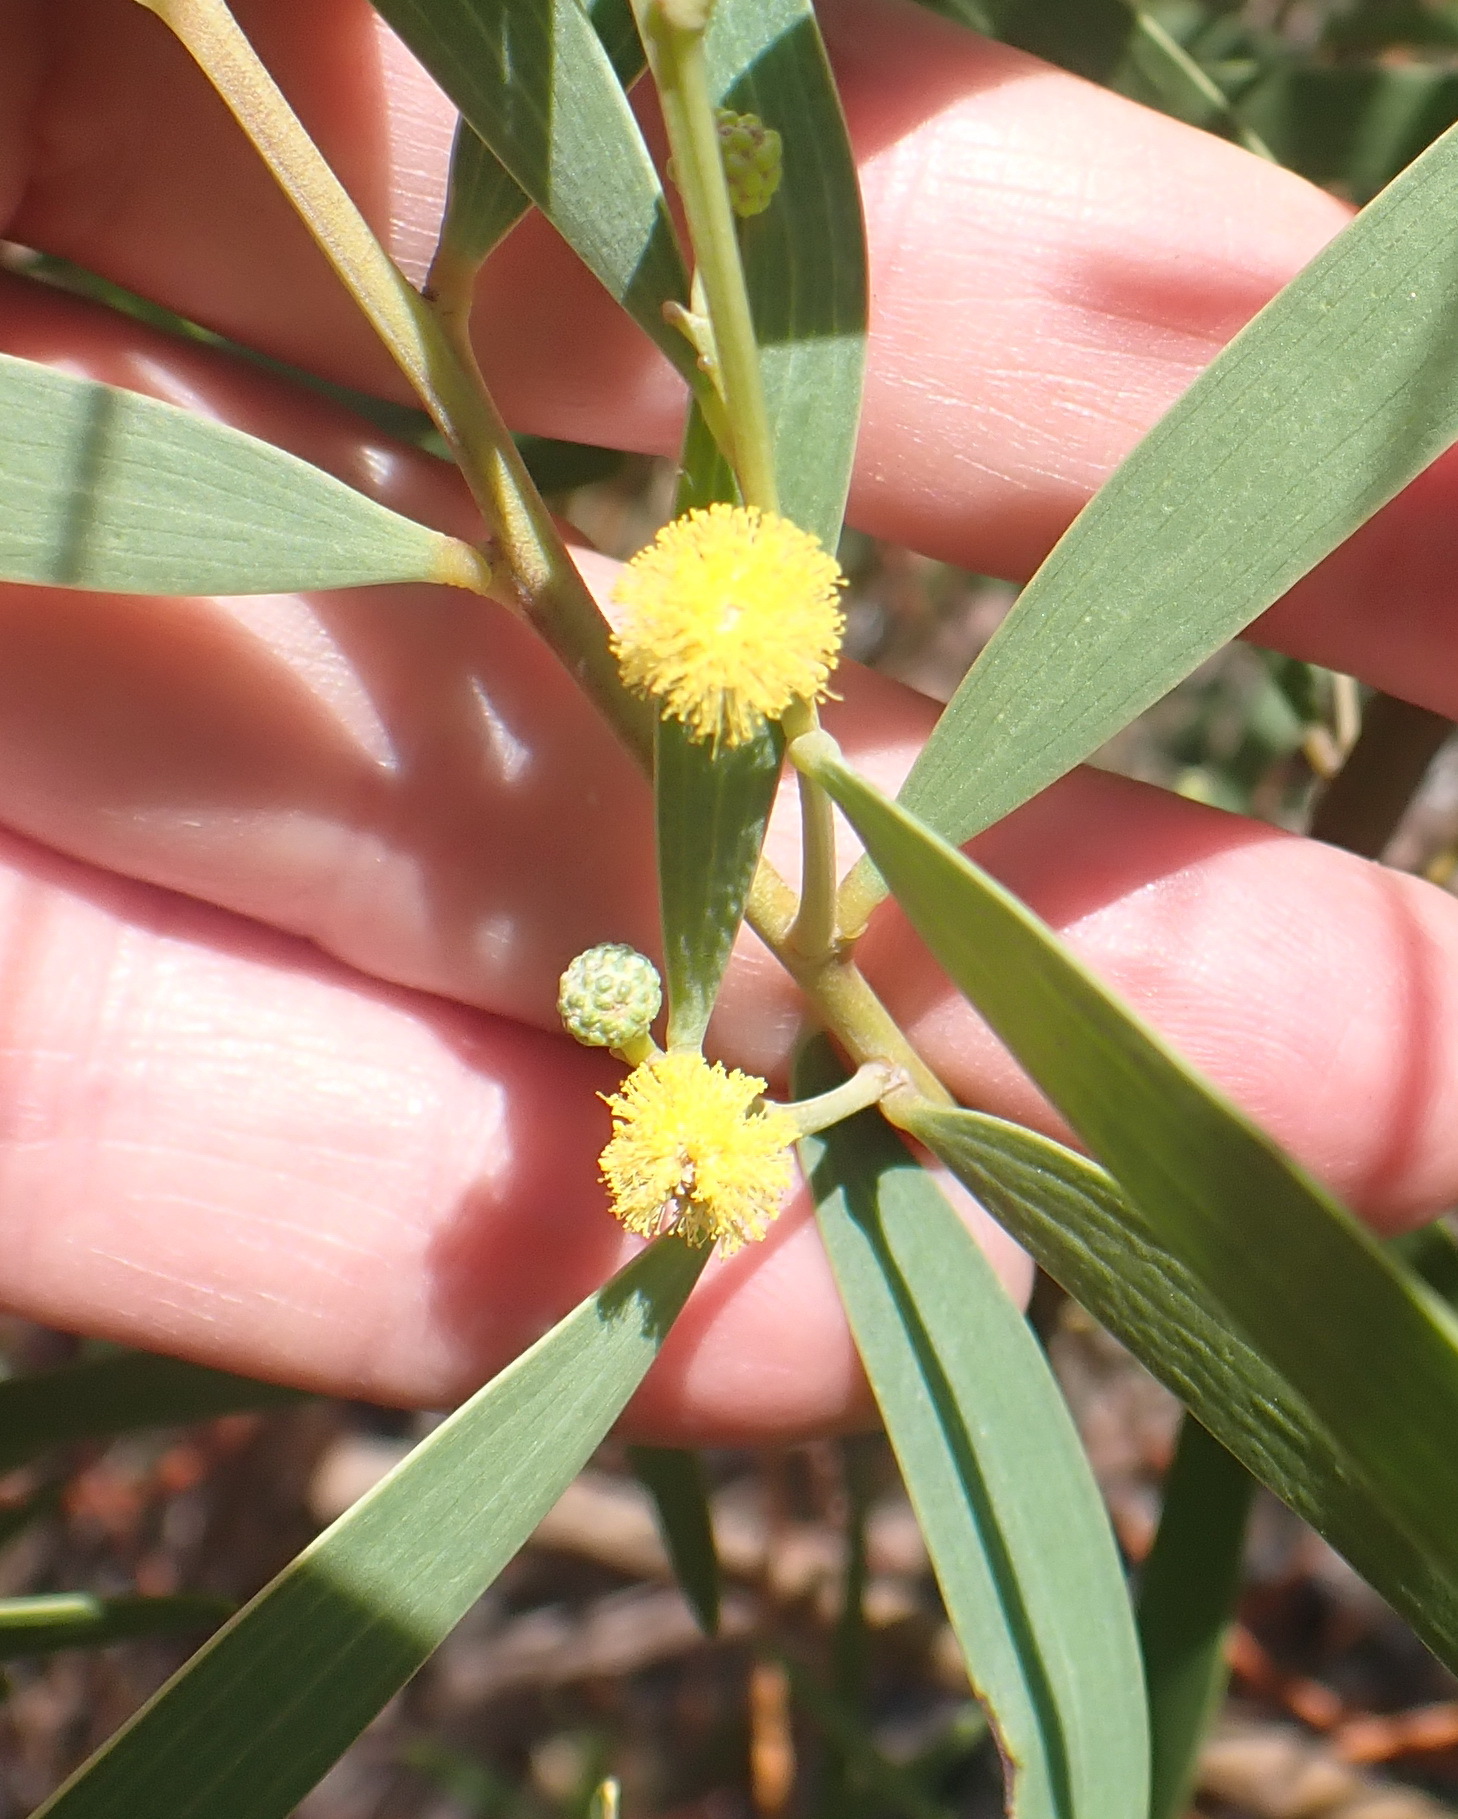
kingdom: Plantae
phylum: Tracheophyta
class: Magnoliopsida
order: Fabales
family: Fabaceae
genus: Acacia
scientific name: Acacia cyclops
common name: Coastal wattle
